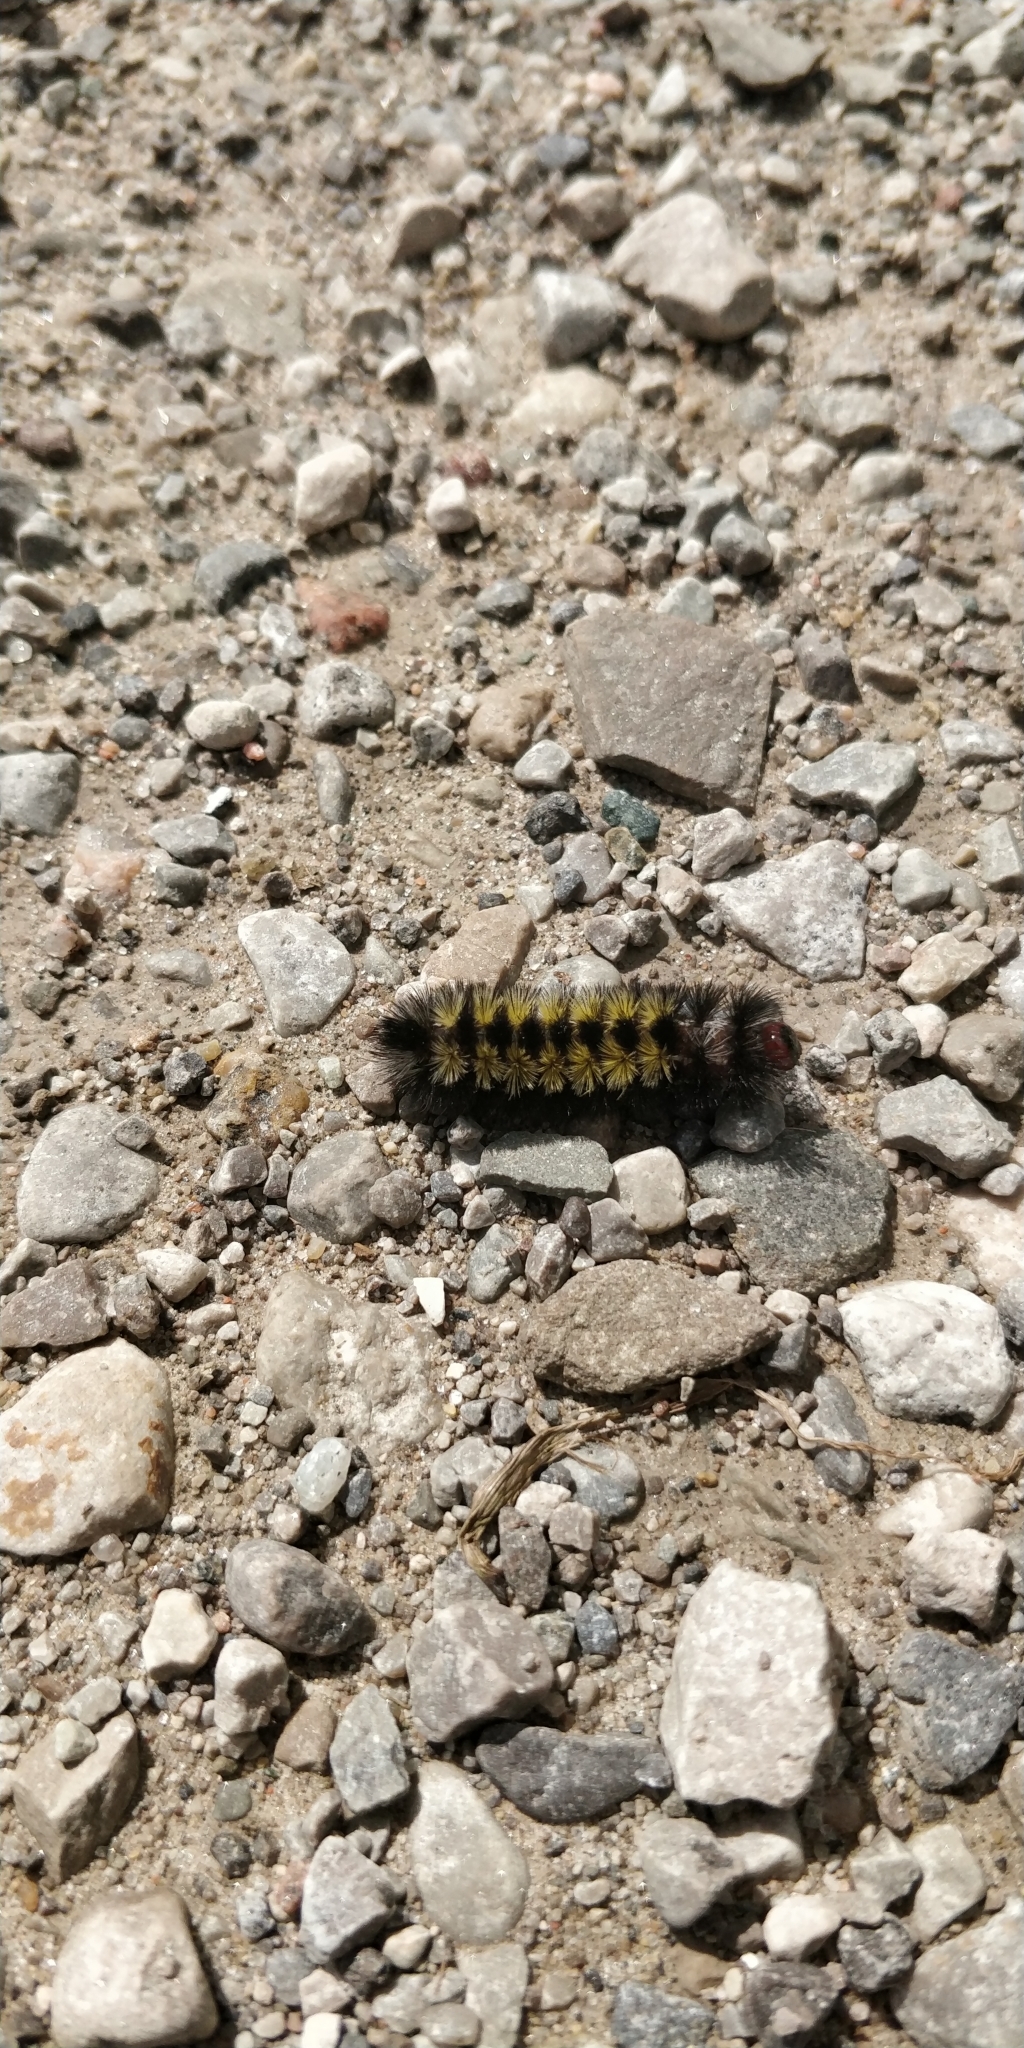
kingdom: Animalia
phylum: Arthropoda
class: Insecta
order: Lepidoptera
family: Erebidae
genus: Ctenucha
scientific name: Ctenucha virginica
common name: Virginia ctenucha moth
